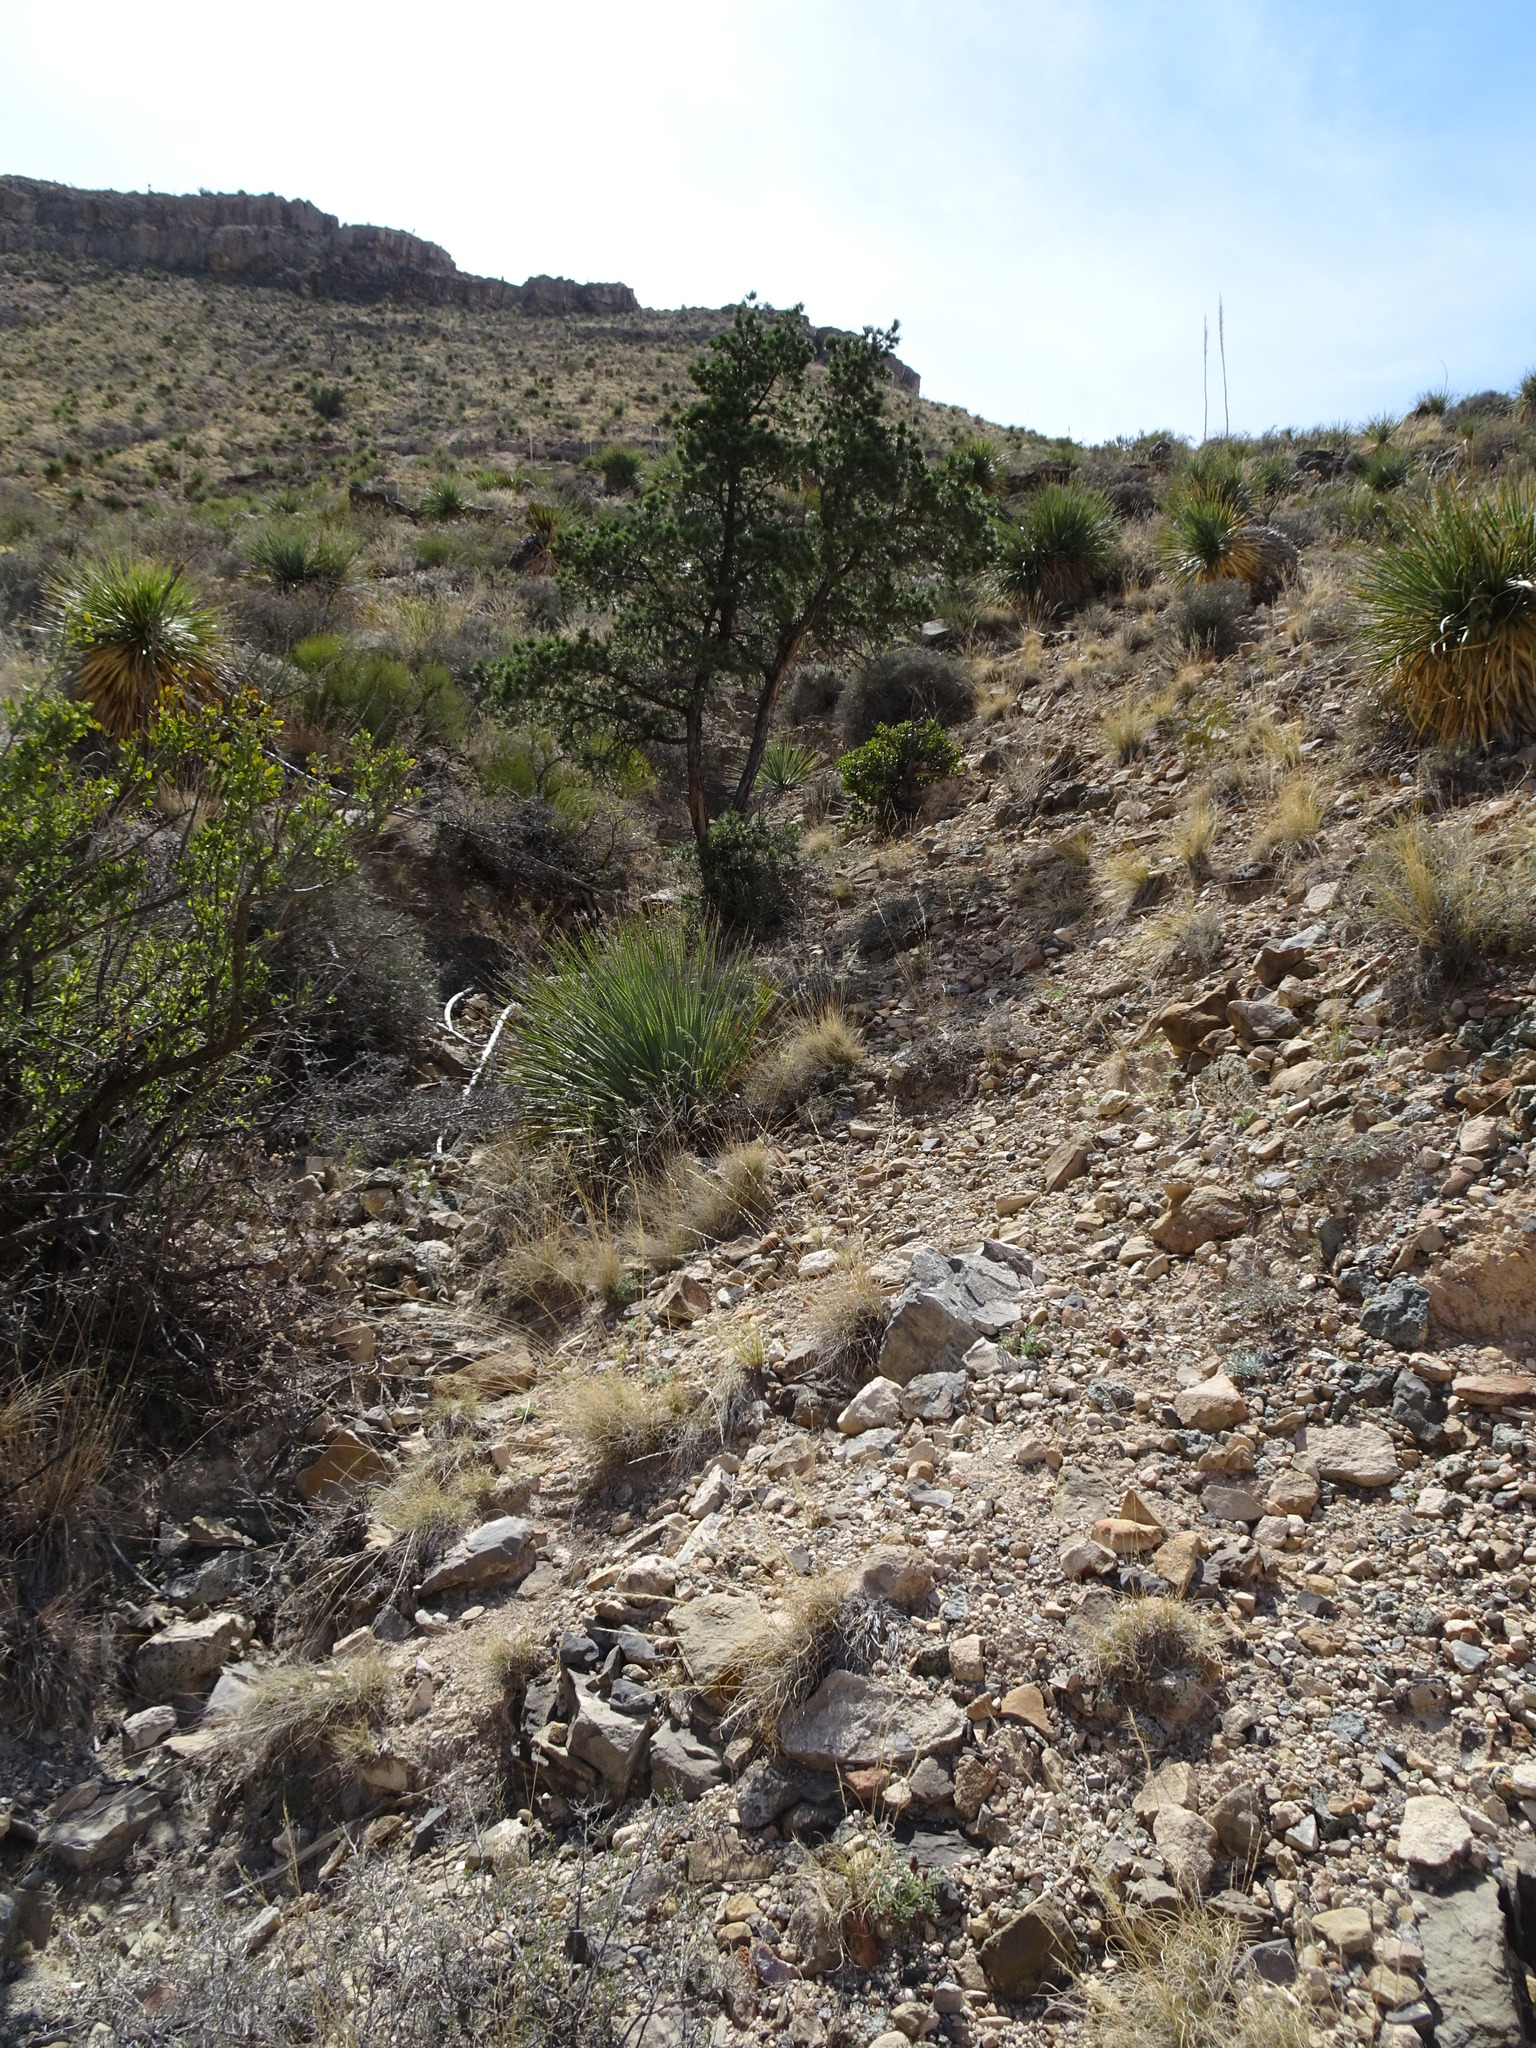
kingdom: Plantae
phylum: Tracheophyta
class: Pinopsida
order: Pinales
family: Pinaceae
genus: Pinus
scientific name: Pinus edulis
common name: Colorado pinyon
